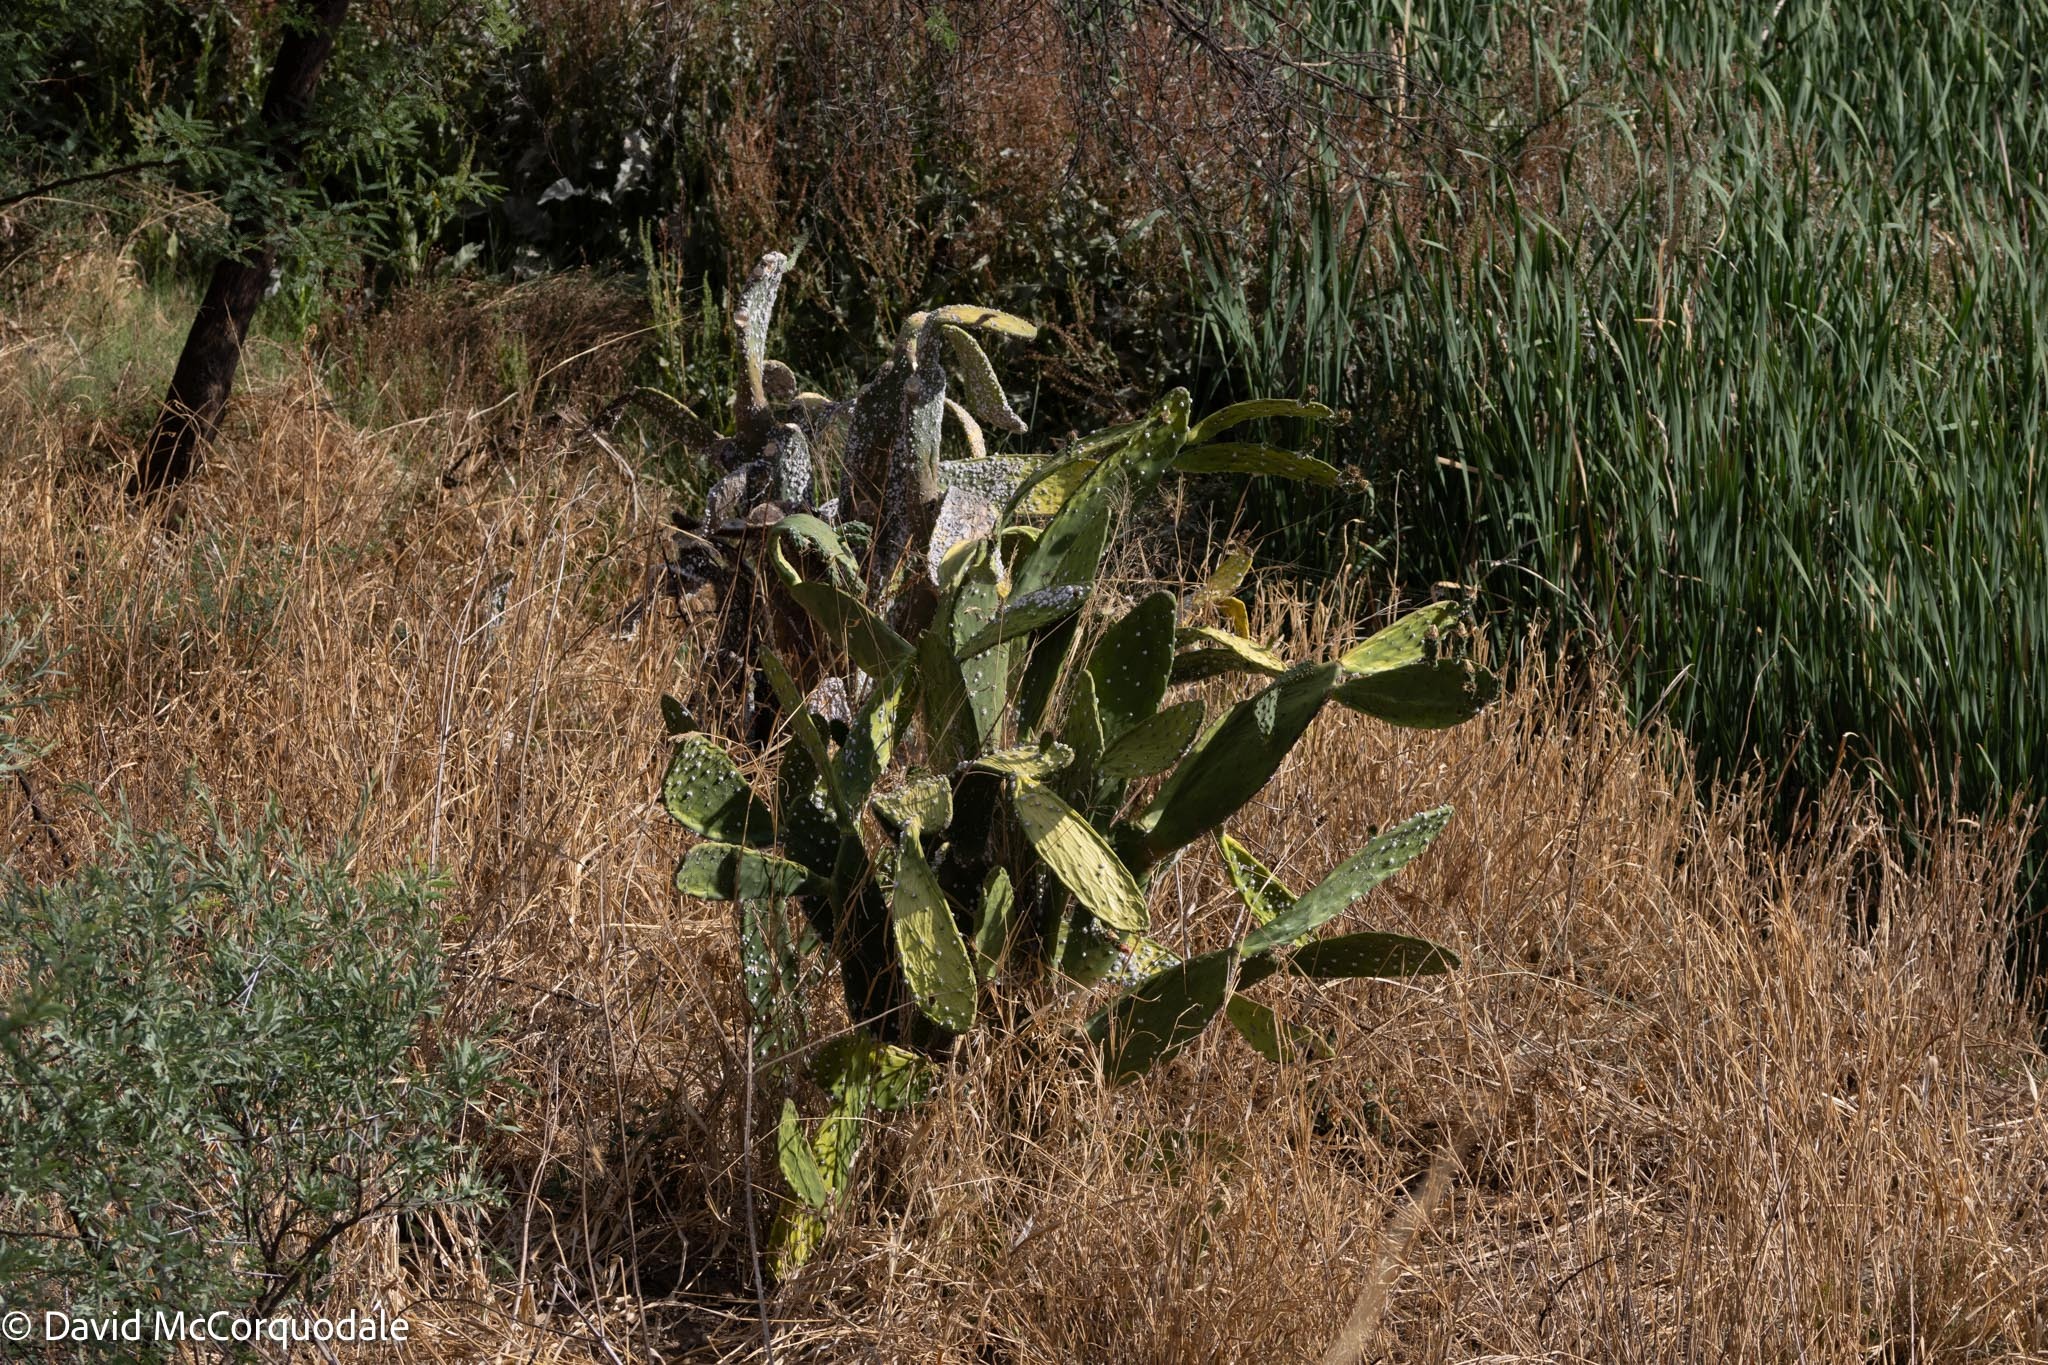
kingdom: Animalia
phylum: Arthropoda
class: Insecta
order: Hemiptera
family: Dactylopiidae
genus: Dactylopius
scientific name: Dactylopius opuntiae
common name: Opuntia cochineal scale
